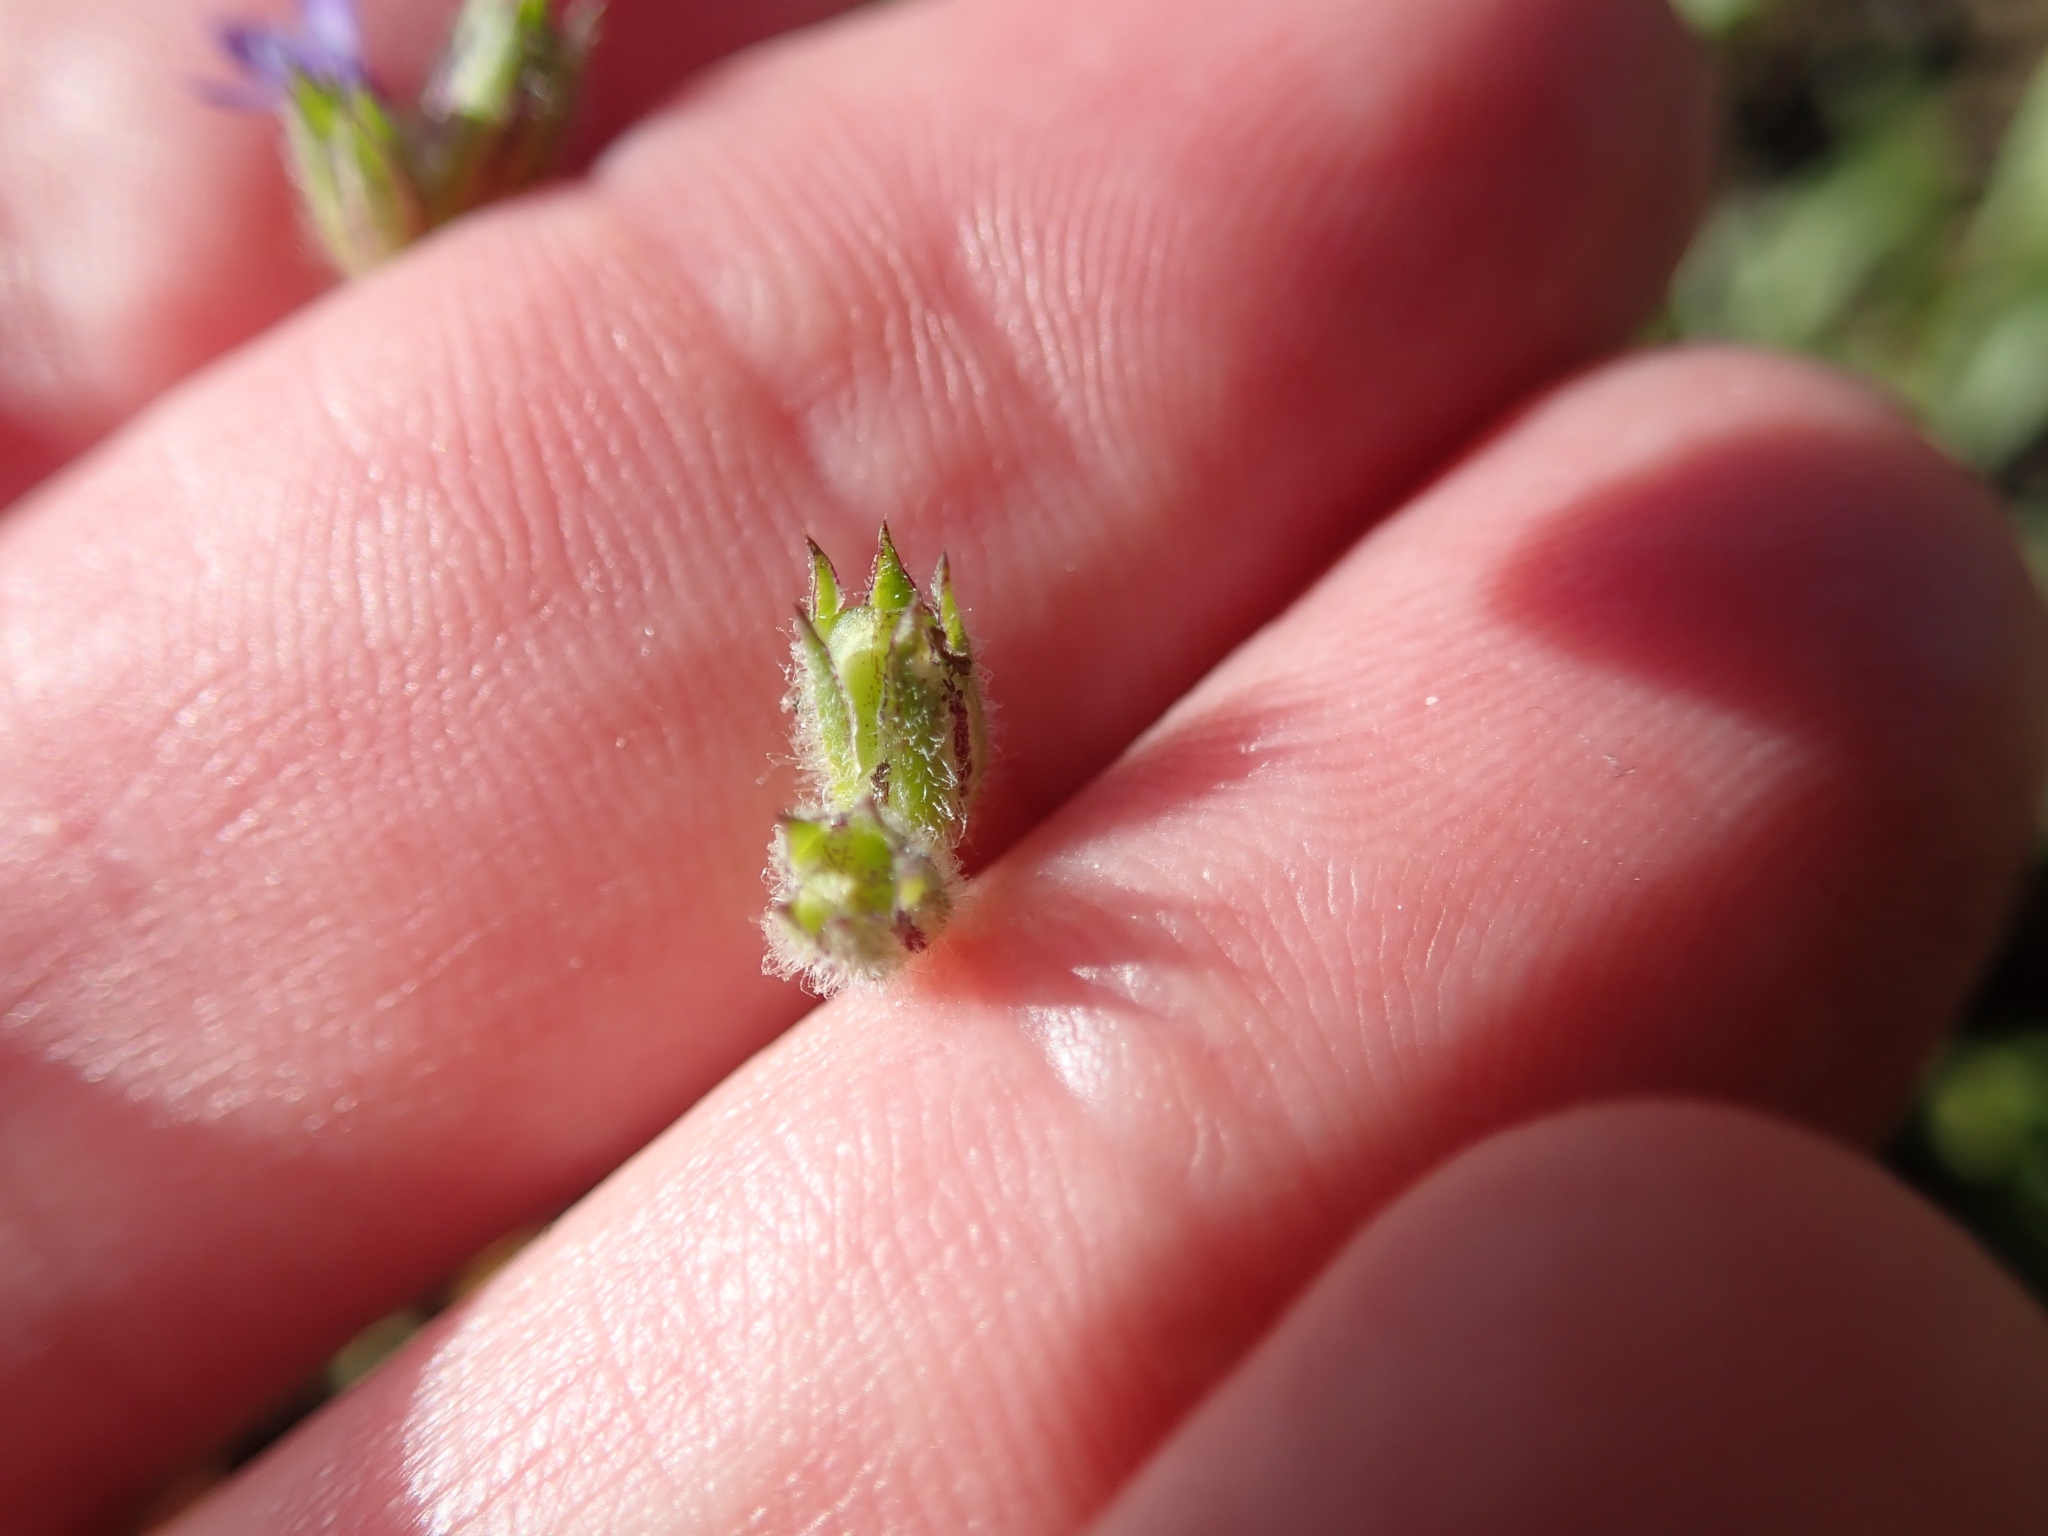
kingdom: Plantae
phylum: Tracheophyta
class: Magnoliopsida
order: Ericales
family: Polemoniaceae
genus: Gilia
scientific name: Gilia clivorum
